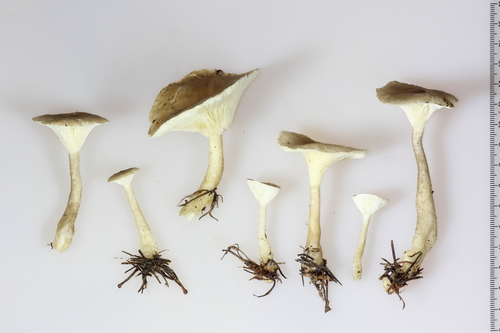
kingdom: Fungi
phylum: Basidiomycota
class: Agaricomycetes
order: Agaricales
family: Hygrophoraceae
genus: Ampulloclitocybe
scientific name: Ampulloclitocybe clavipes
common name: Club foot
